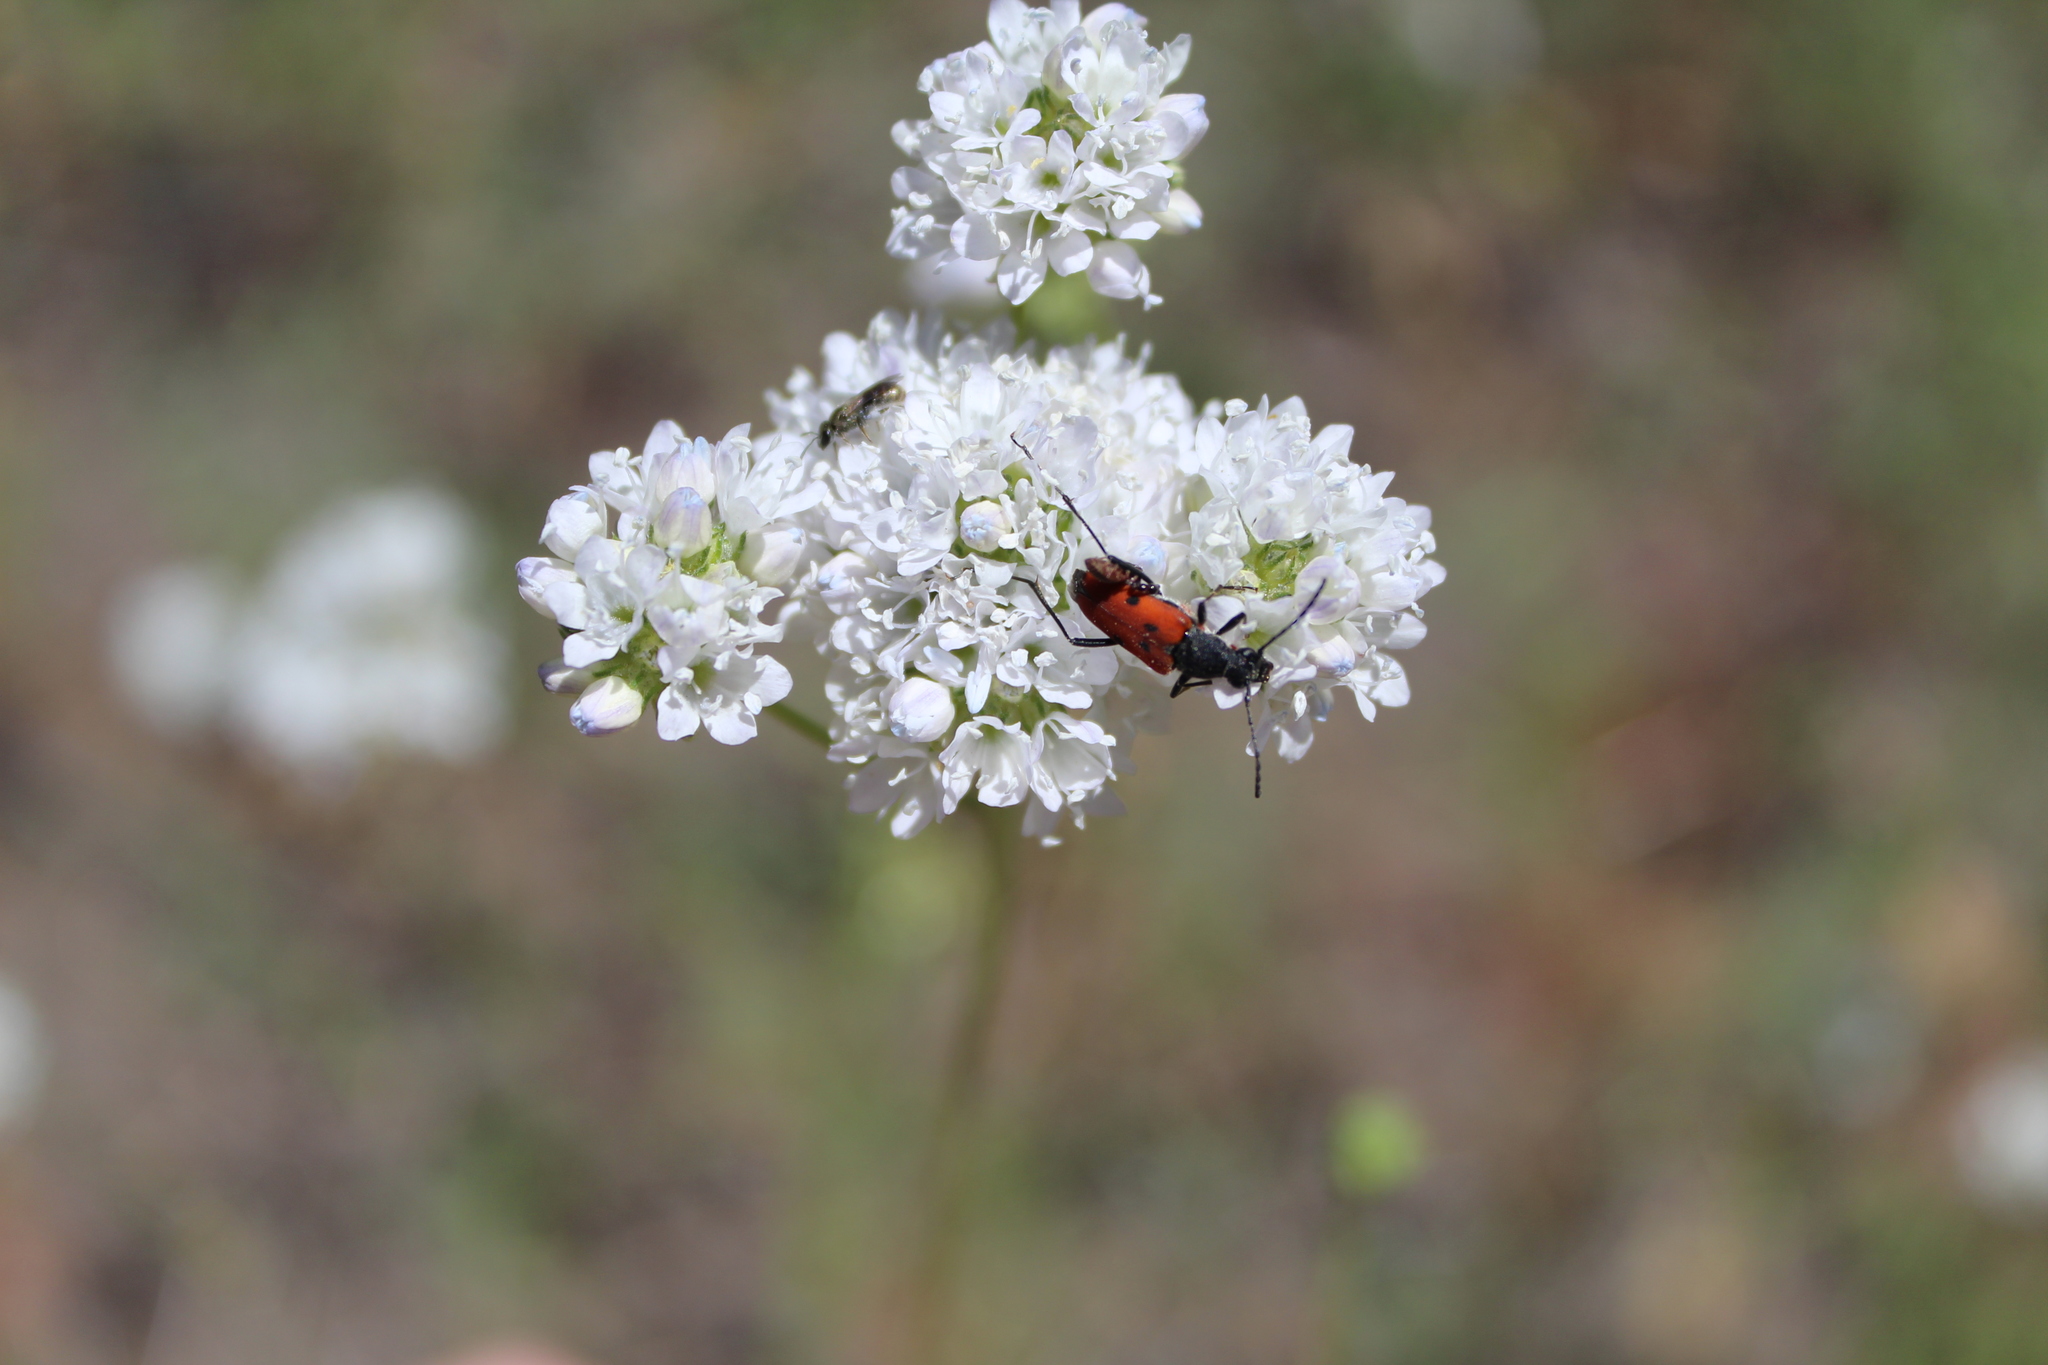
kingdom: Animalia
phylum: Arthropoda
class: Insecta
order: Coleoptera
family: Cerambycidae
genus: Anastrangalia
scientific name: Anastrangalia laetifica
